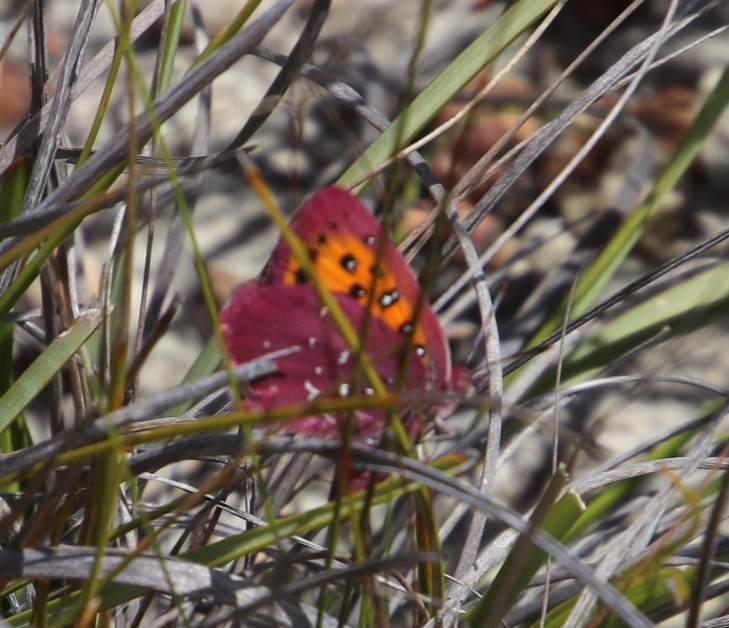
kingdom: Animalia
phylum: Arthropoda
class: Insecta
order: Lepidoptera
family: Lycaenidae
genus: Aloeides
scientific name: Aloeides aranda
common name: Aranda copper
